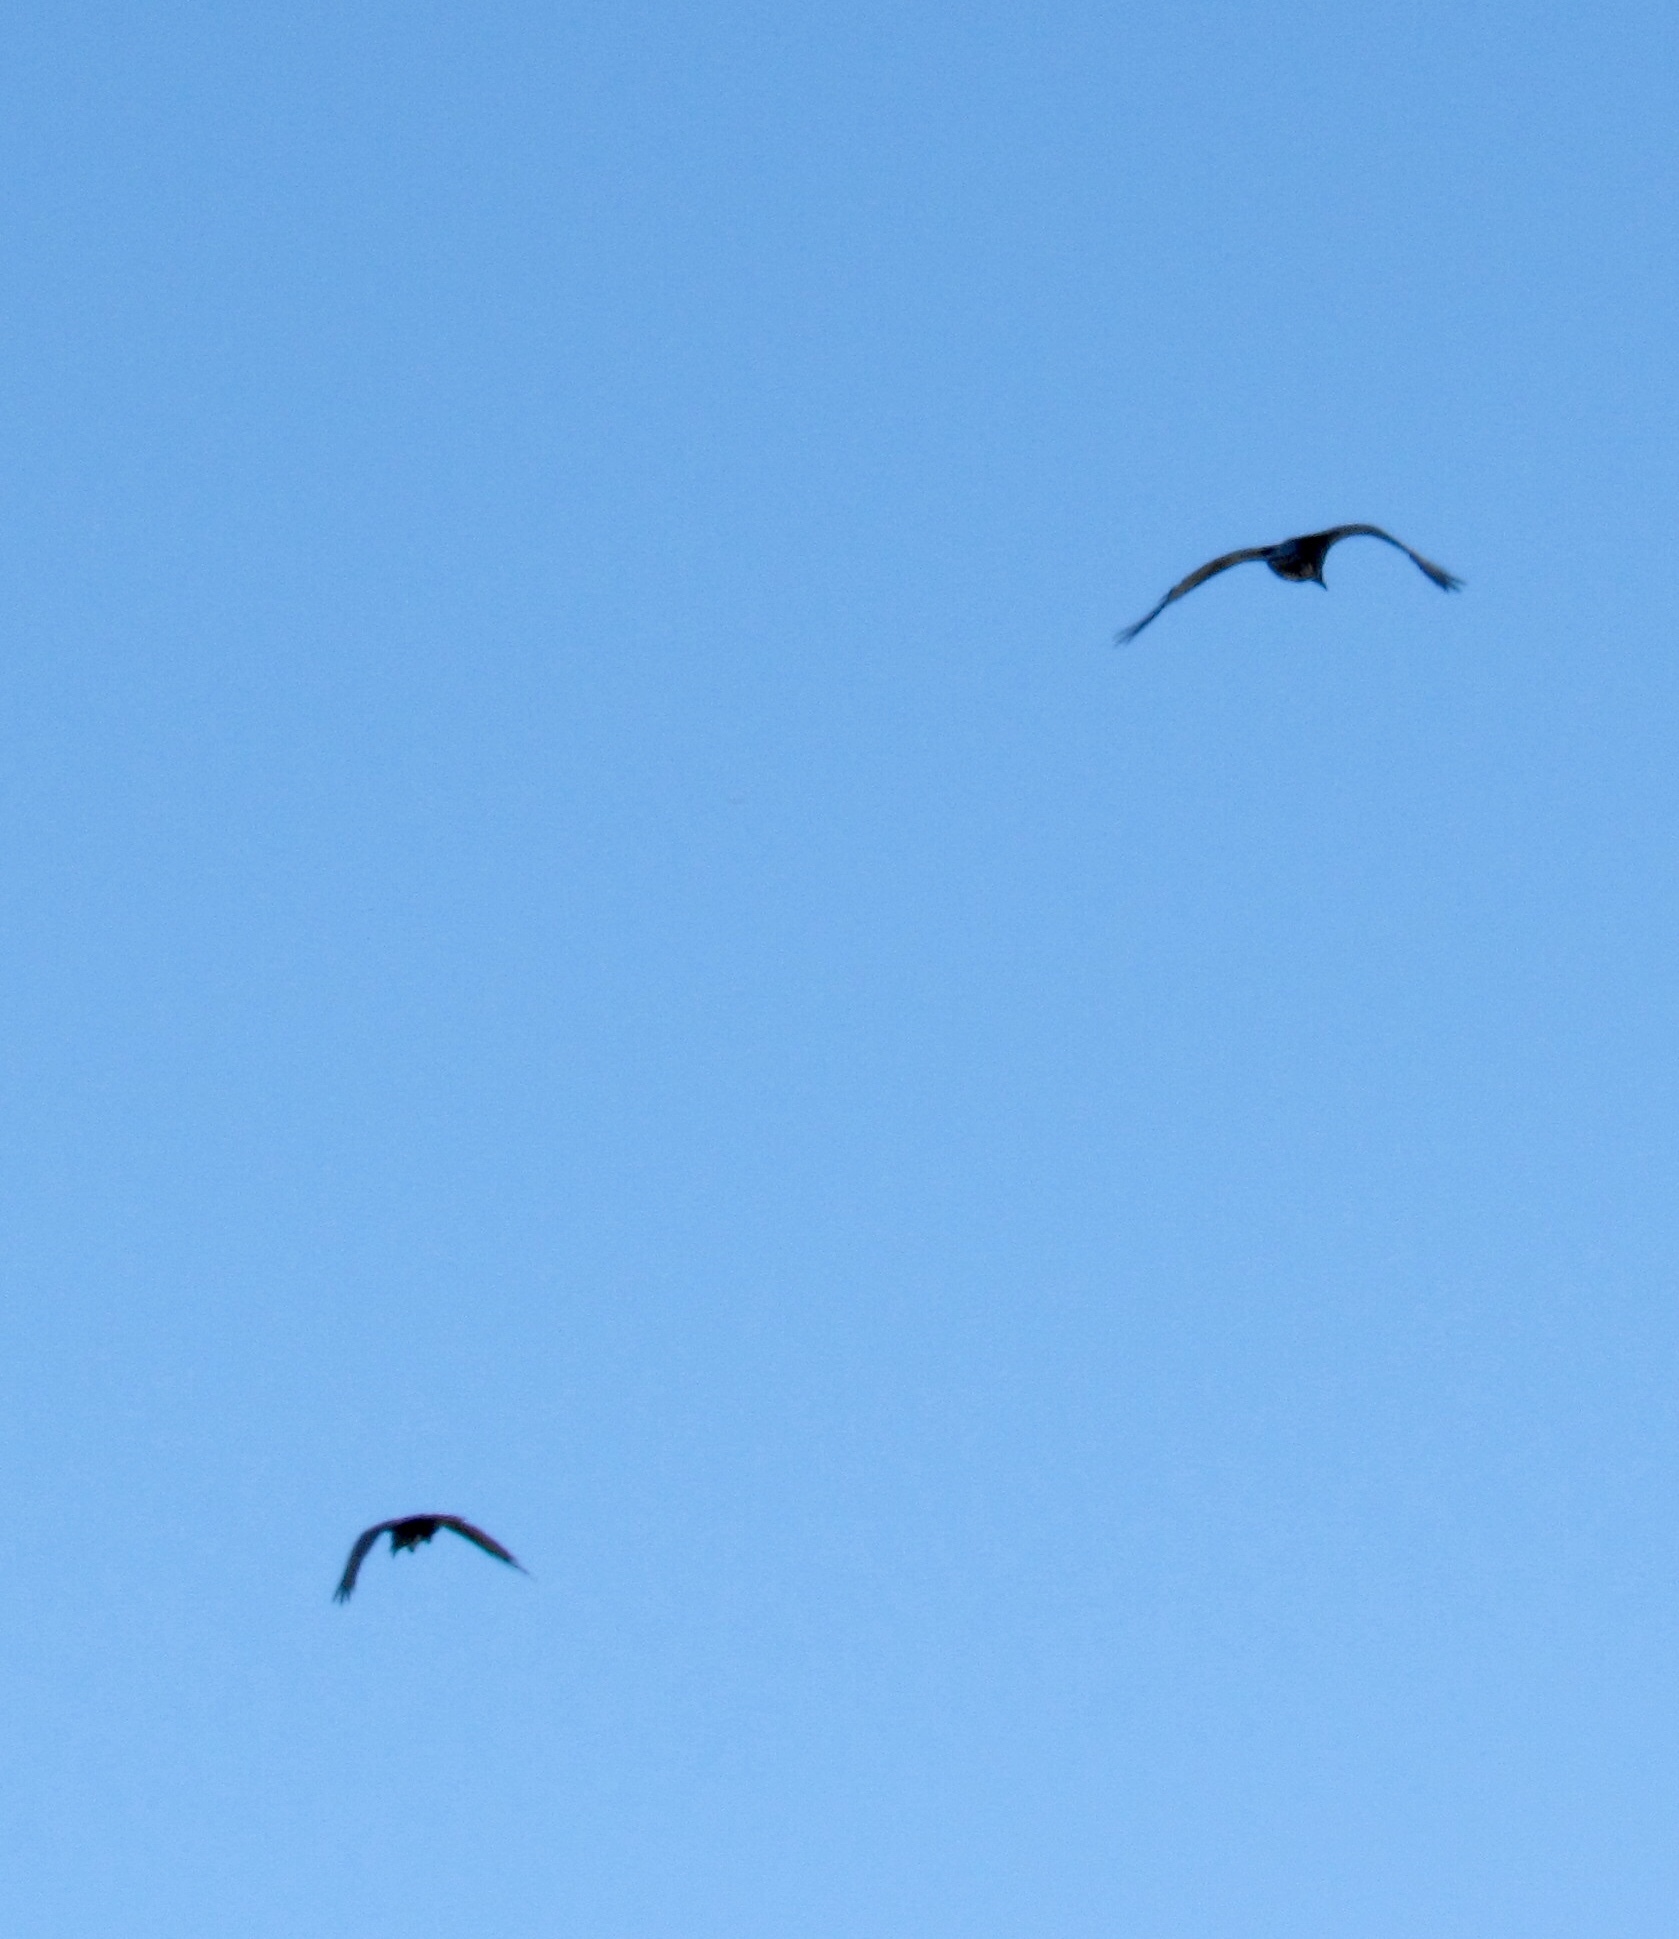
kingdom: Animalia
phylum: Chordata
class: Aves
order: Passeriformes
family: Corvidae
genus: Corvus
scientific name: Corvus corax
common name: Common raven
